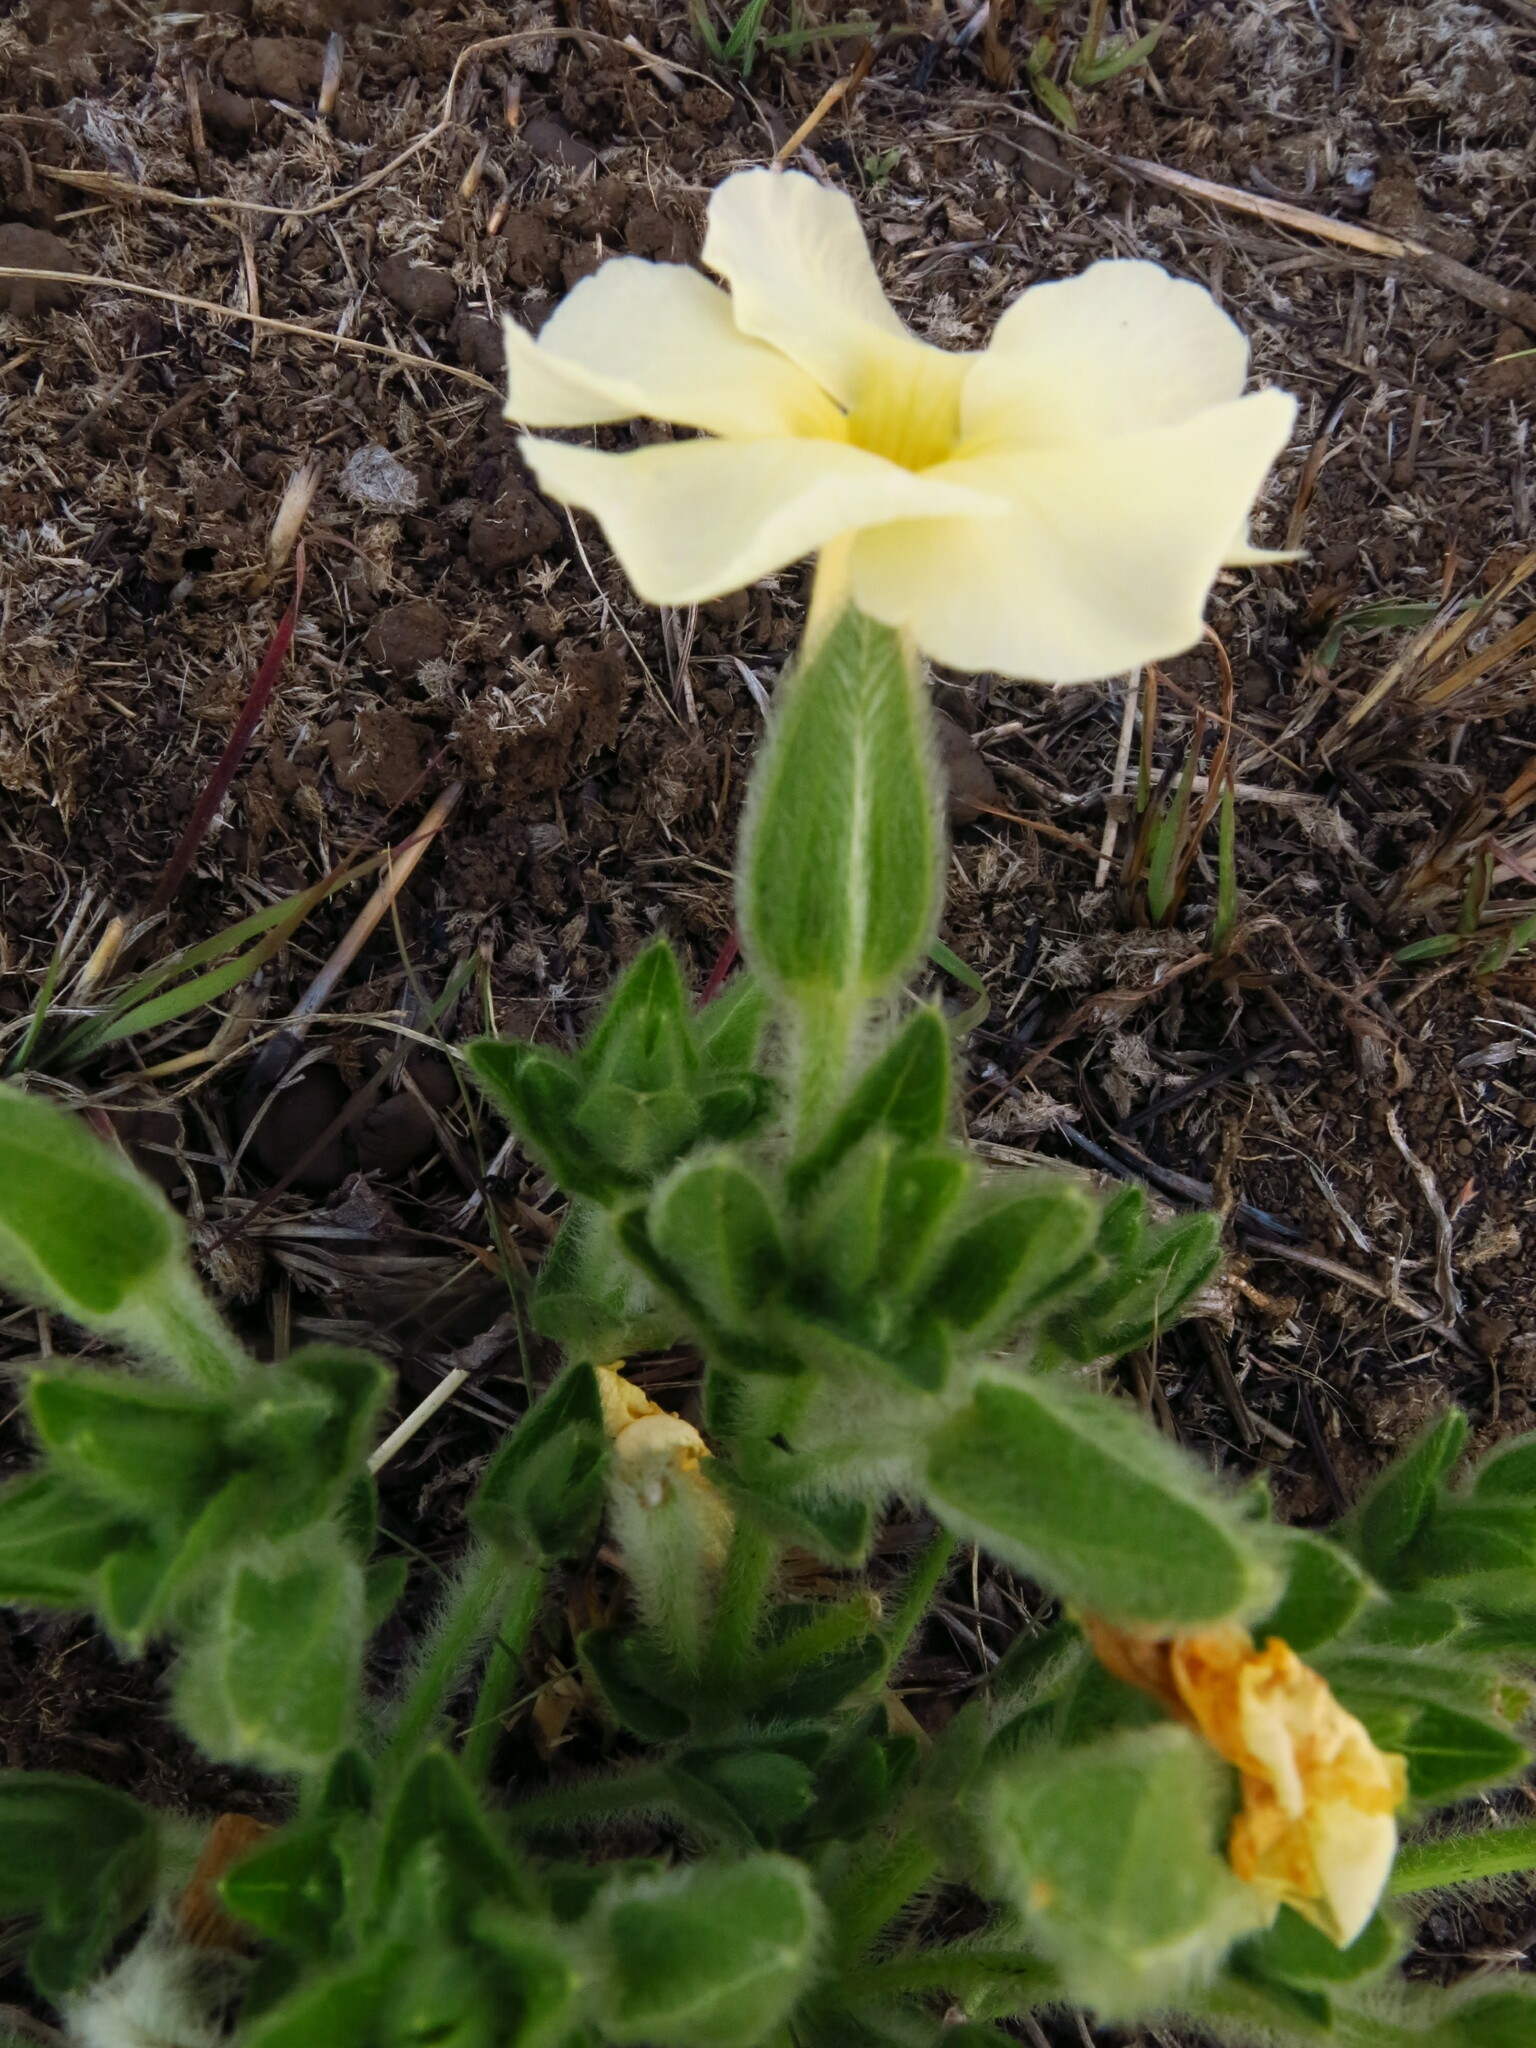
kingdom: Plantae
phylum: Tracheophyta
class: Magnoliopsida
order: Lamiales
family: Acanthaceae
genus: Thunbergia
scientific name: Thunbergia atriplicifolia
